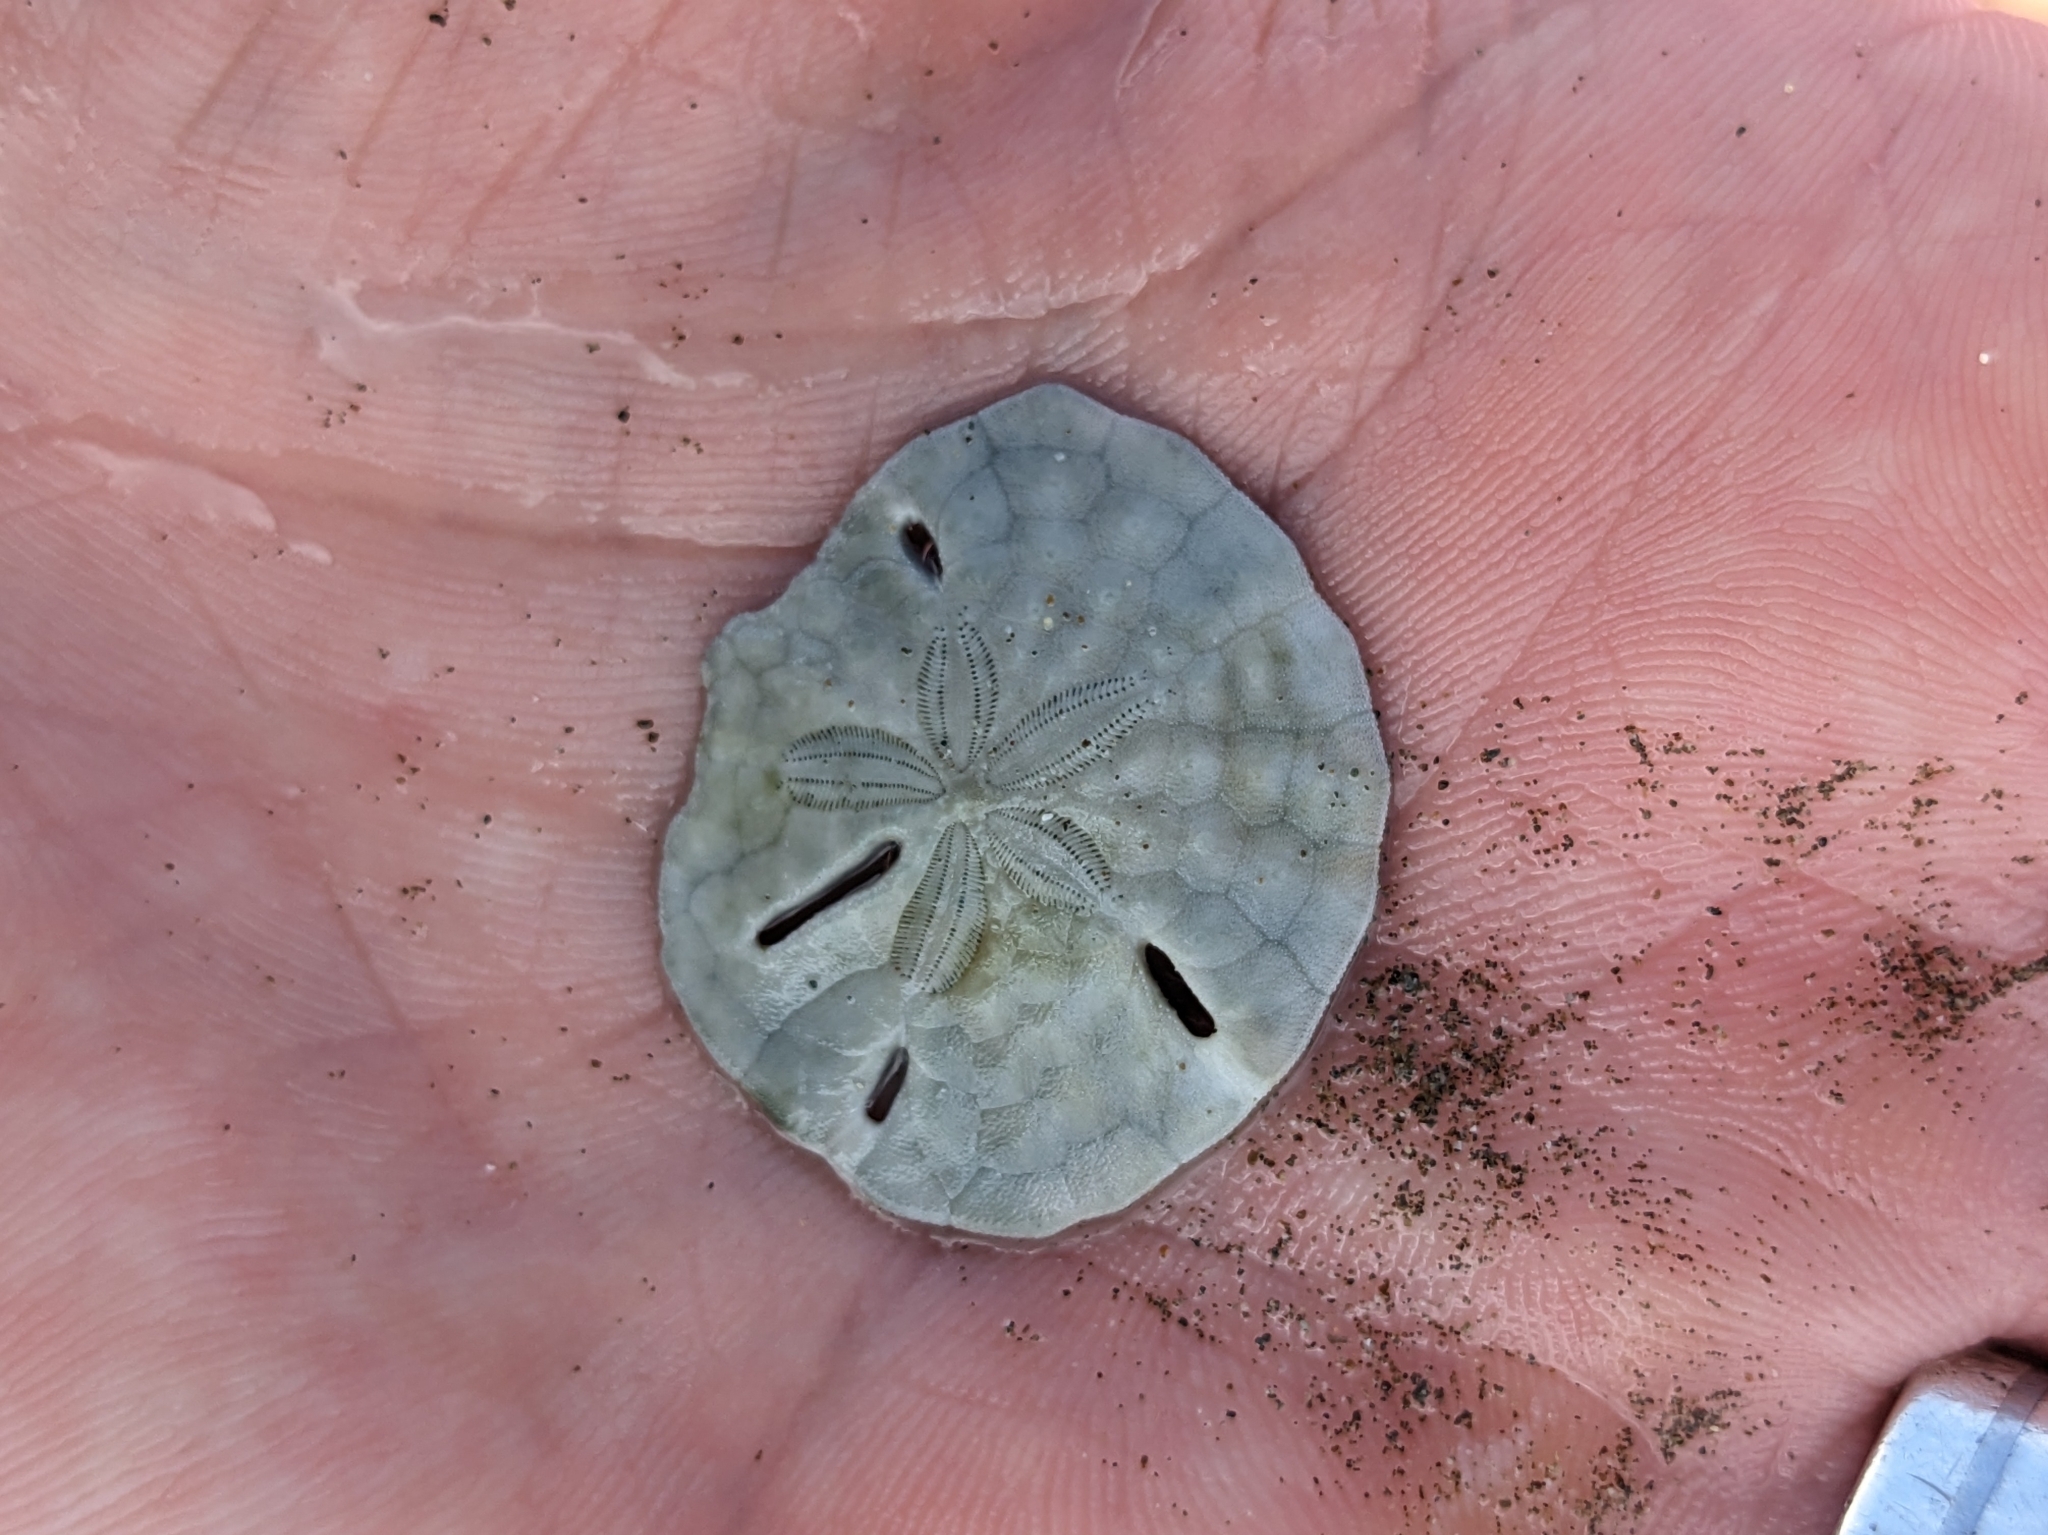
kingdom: Animalia
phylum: Echinodermata
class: Echinoidea
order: Echinolampadacea
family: Mellitidae
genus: Mellita
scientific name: Mellita quinquiesperforata
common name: Sand dollar
